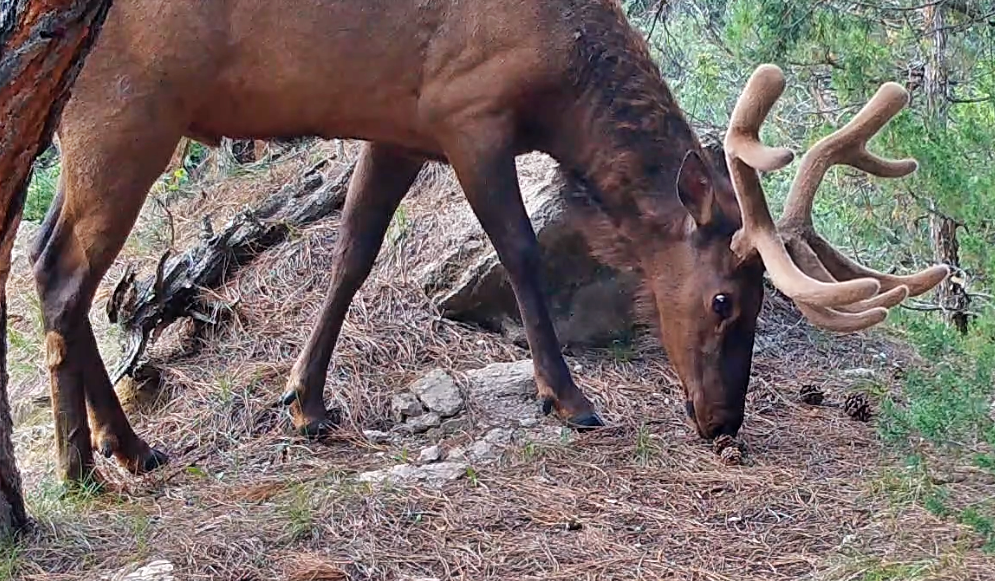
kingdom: Animalia
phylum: Chordata
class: Mammalia
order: Artiodactyla
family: Cervidae
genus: Cervus
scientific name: Cervus elaphus
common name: Red deer
